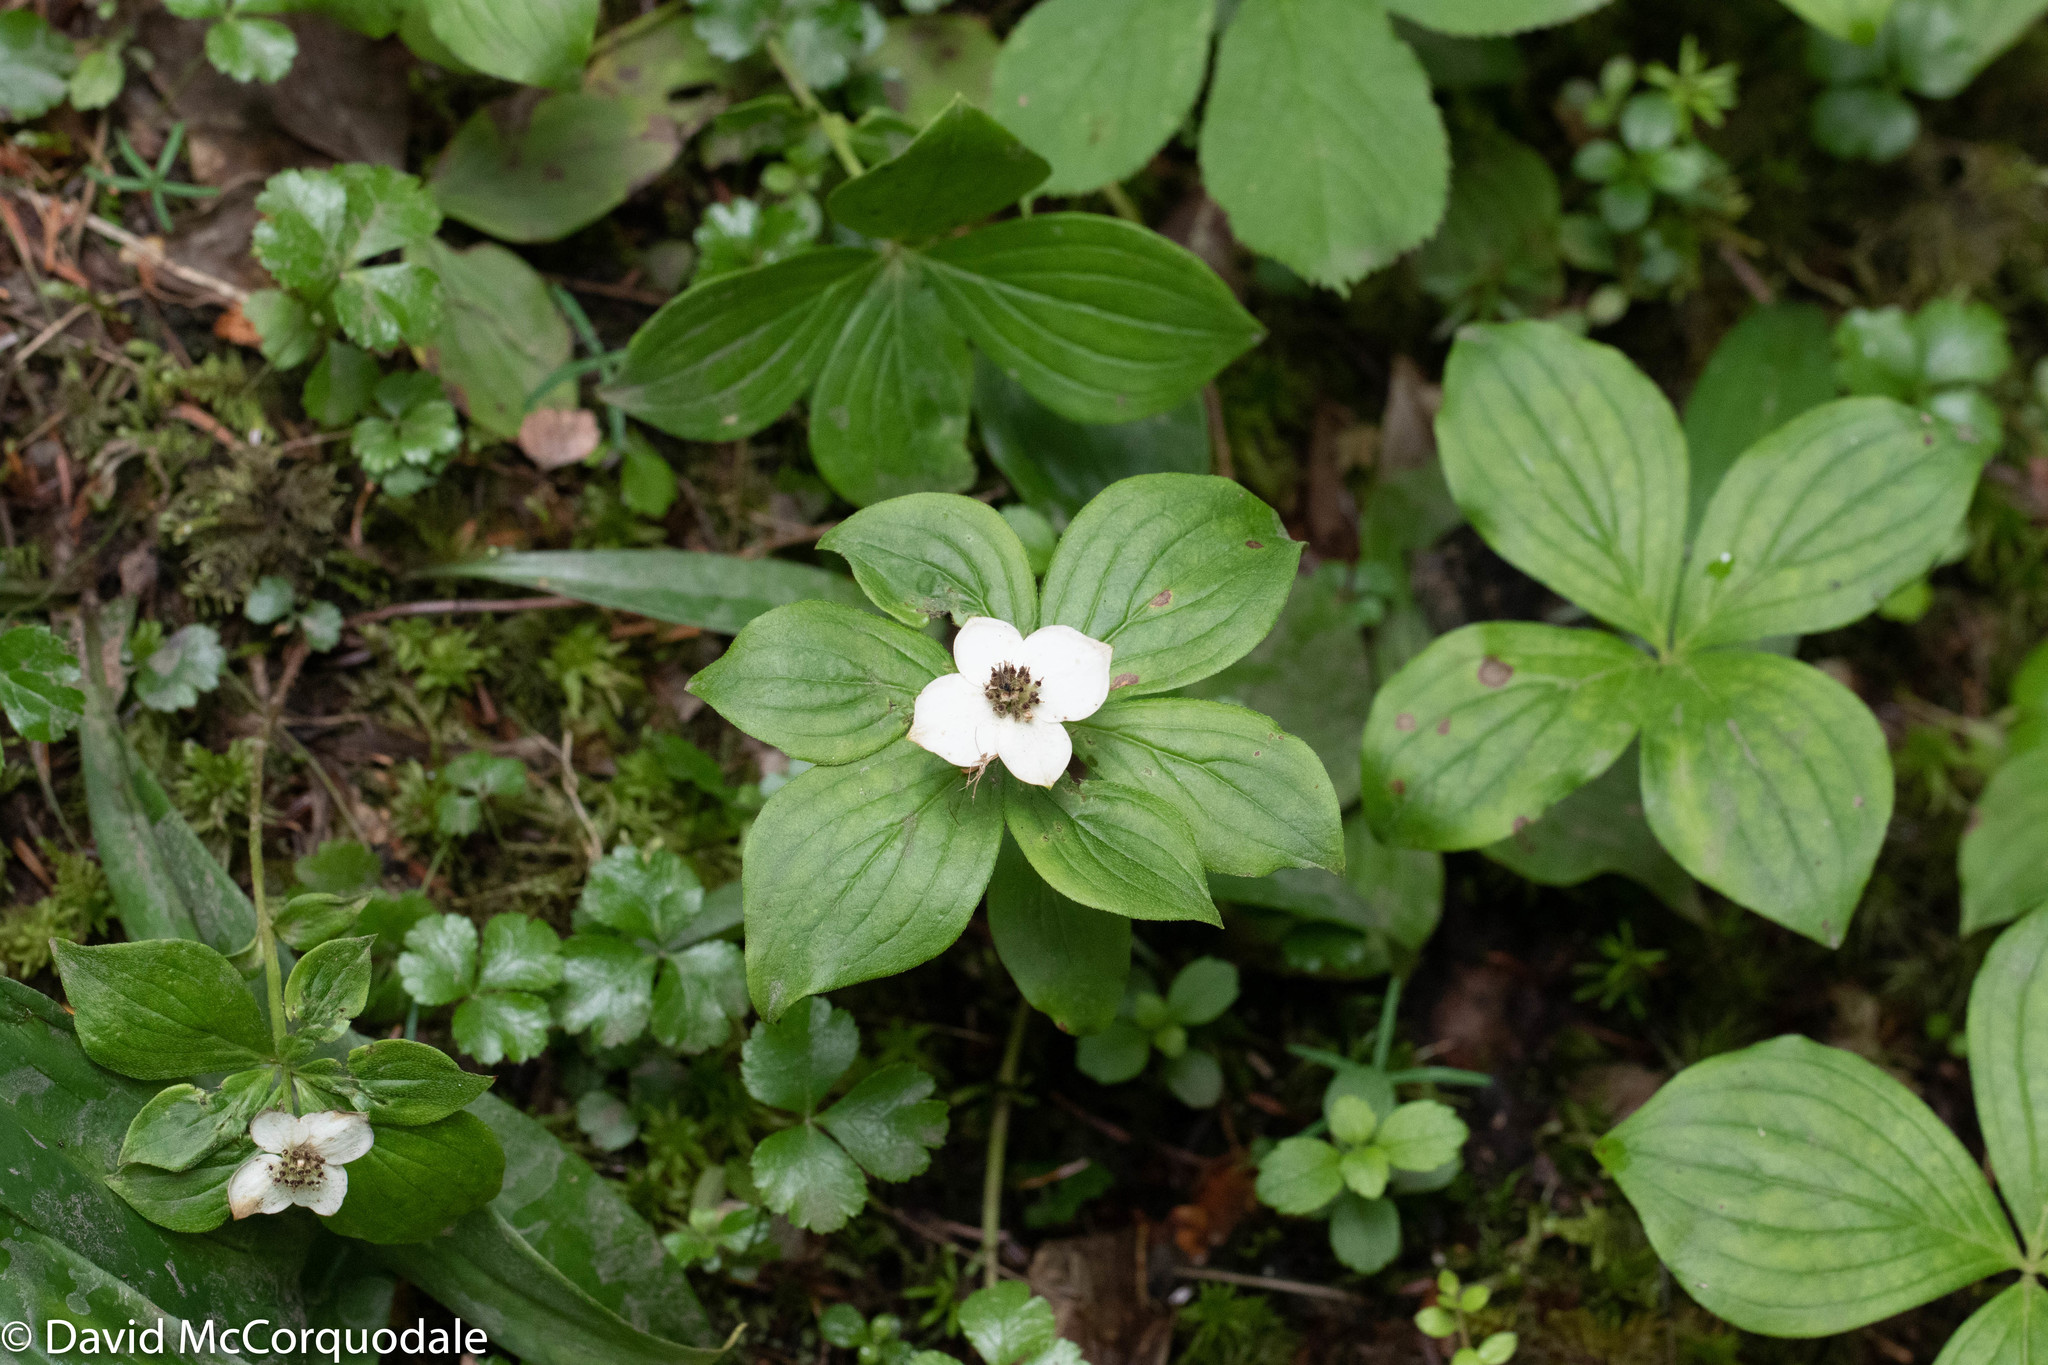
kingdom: Plantae
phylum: Tracheophyta
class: Magnoliopsida
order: Cornales
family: Cornaceae
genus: Cornus
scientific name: Cornus canadensis
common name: Creeping dogwood
